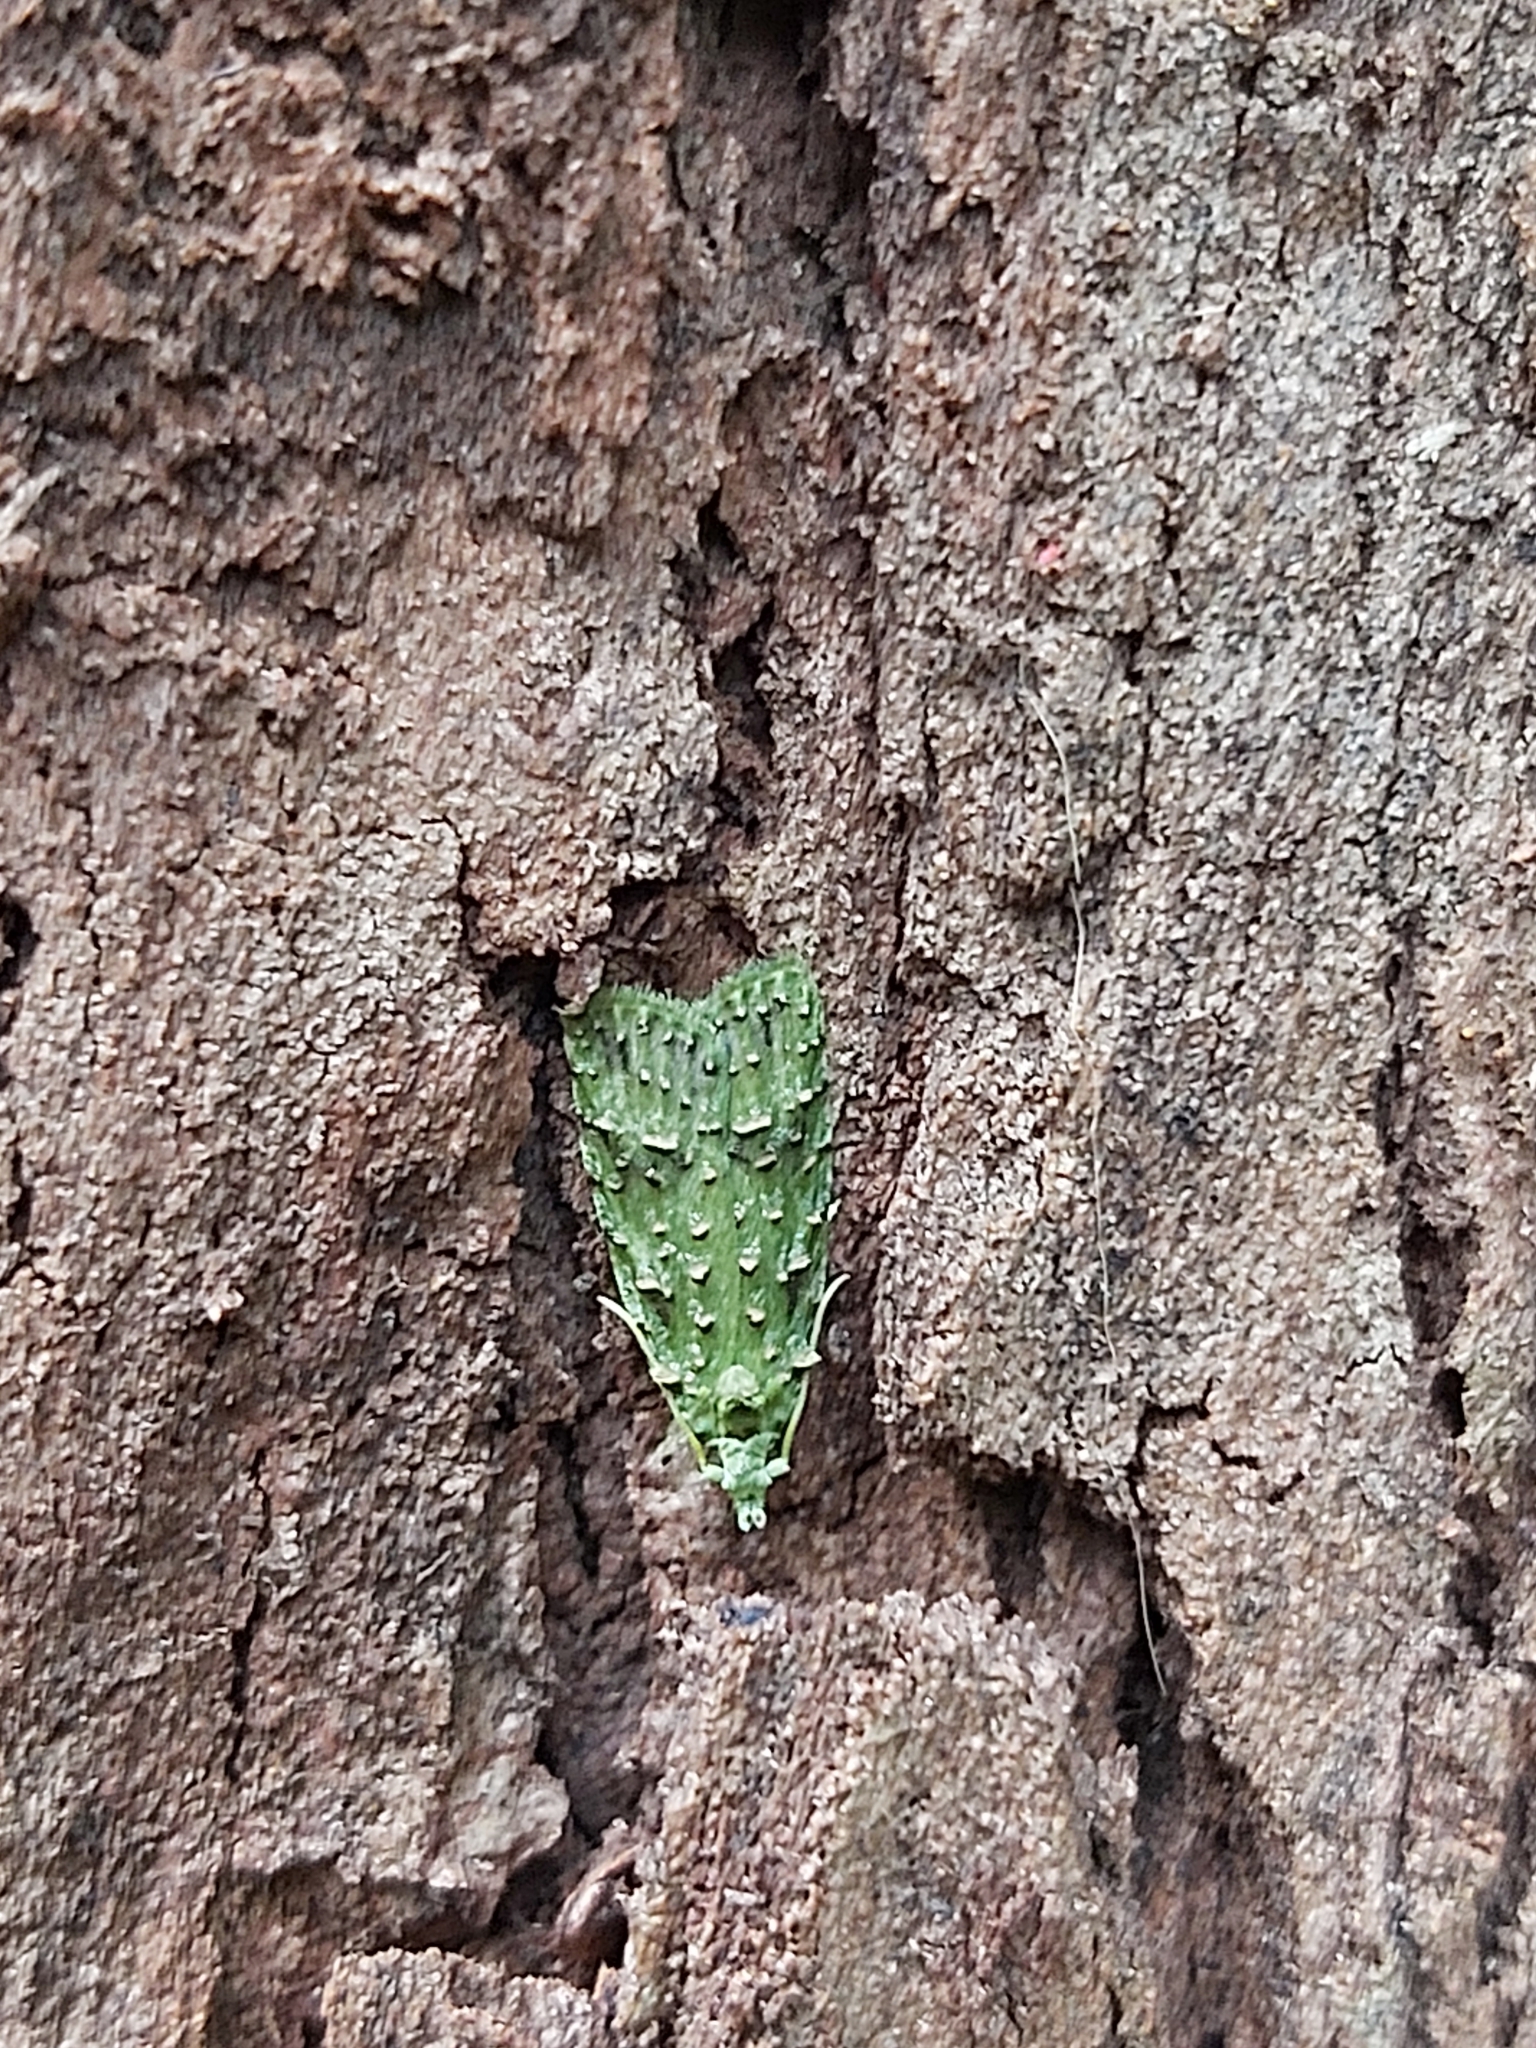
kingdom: Animalia
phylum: Arthropoda
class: Insecta
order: Lepidoptera
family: Copromorphidae
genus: Phycomorpha
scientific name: Phycomorpha prasinochroa
